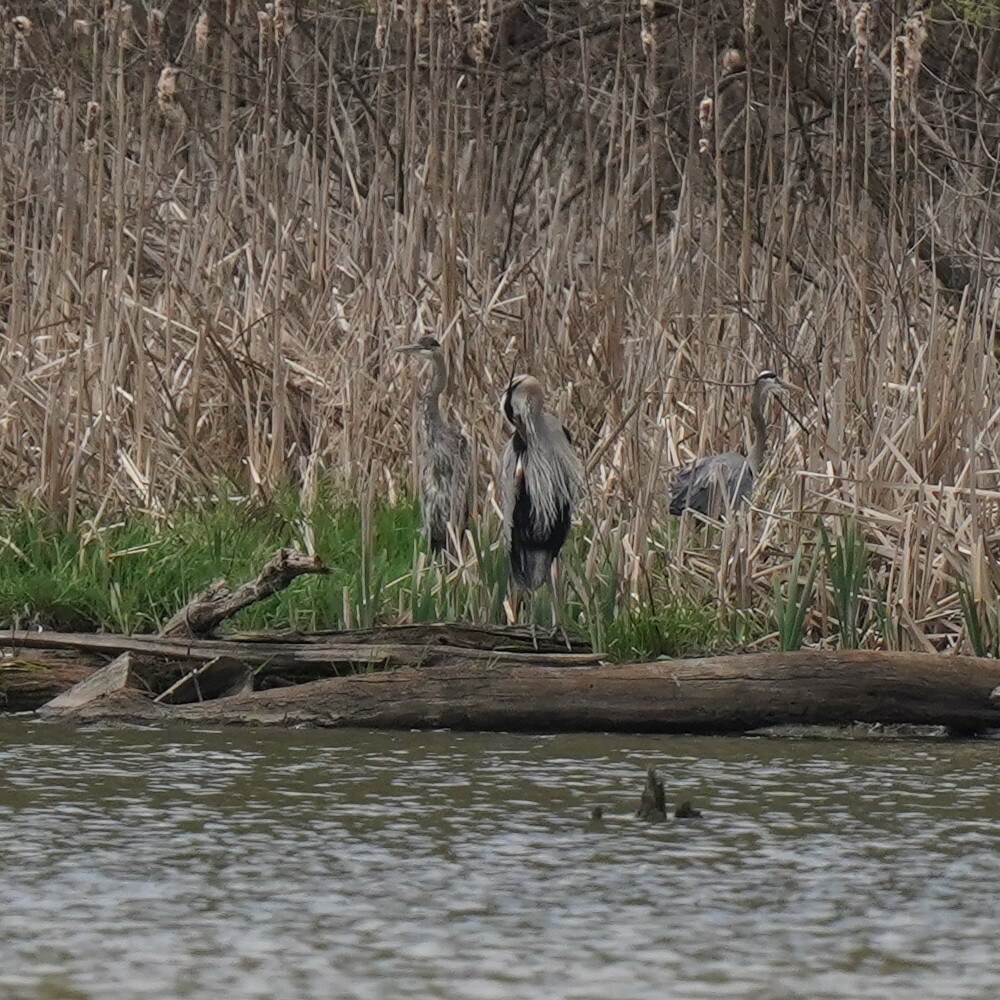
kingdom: Animalia
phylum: Chordata
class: Aves
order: Pelecaniformes
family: Ardeidae
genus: Ardea
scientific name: Ardea herodias
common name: Great blue heron
